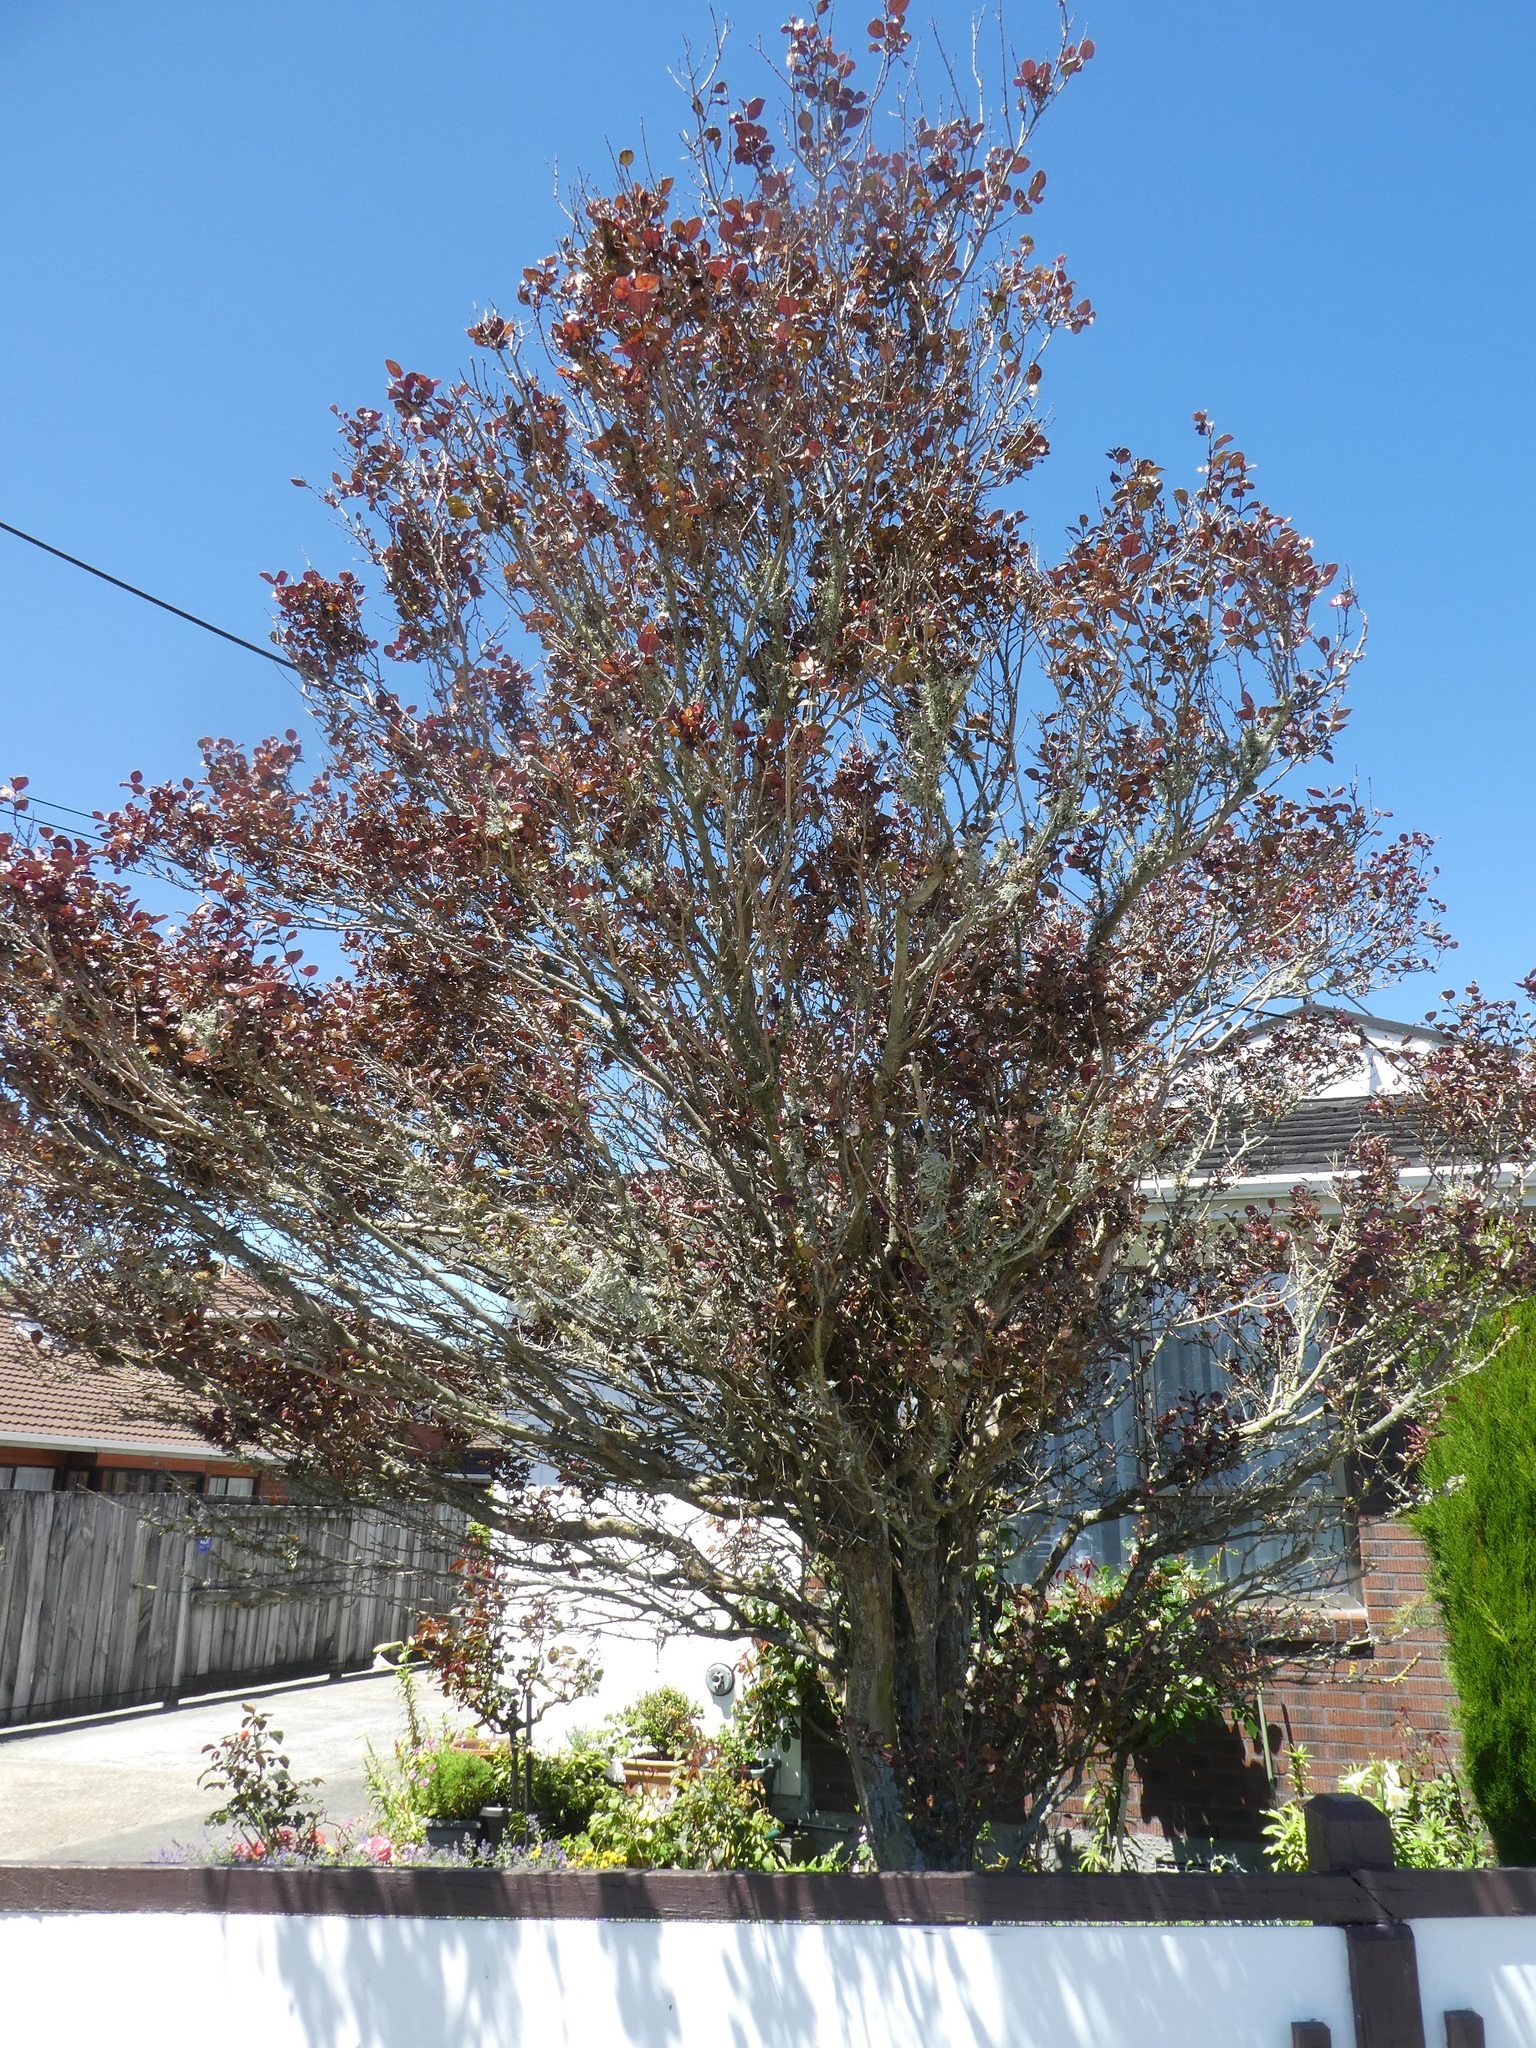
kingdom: Fungi
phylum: Basidiomycota
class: Pucciniomycetes
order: Pucciniales
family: Sphaerophragmiaceae
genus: Austropuccinia
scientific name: Austropuccinia psidii
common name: Myrtle rust
